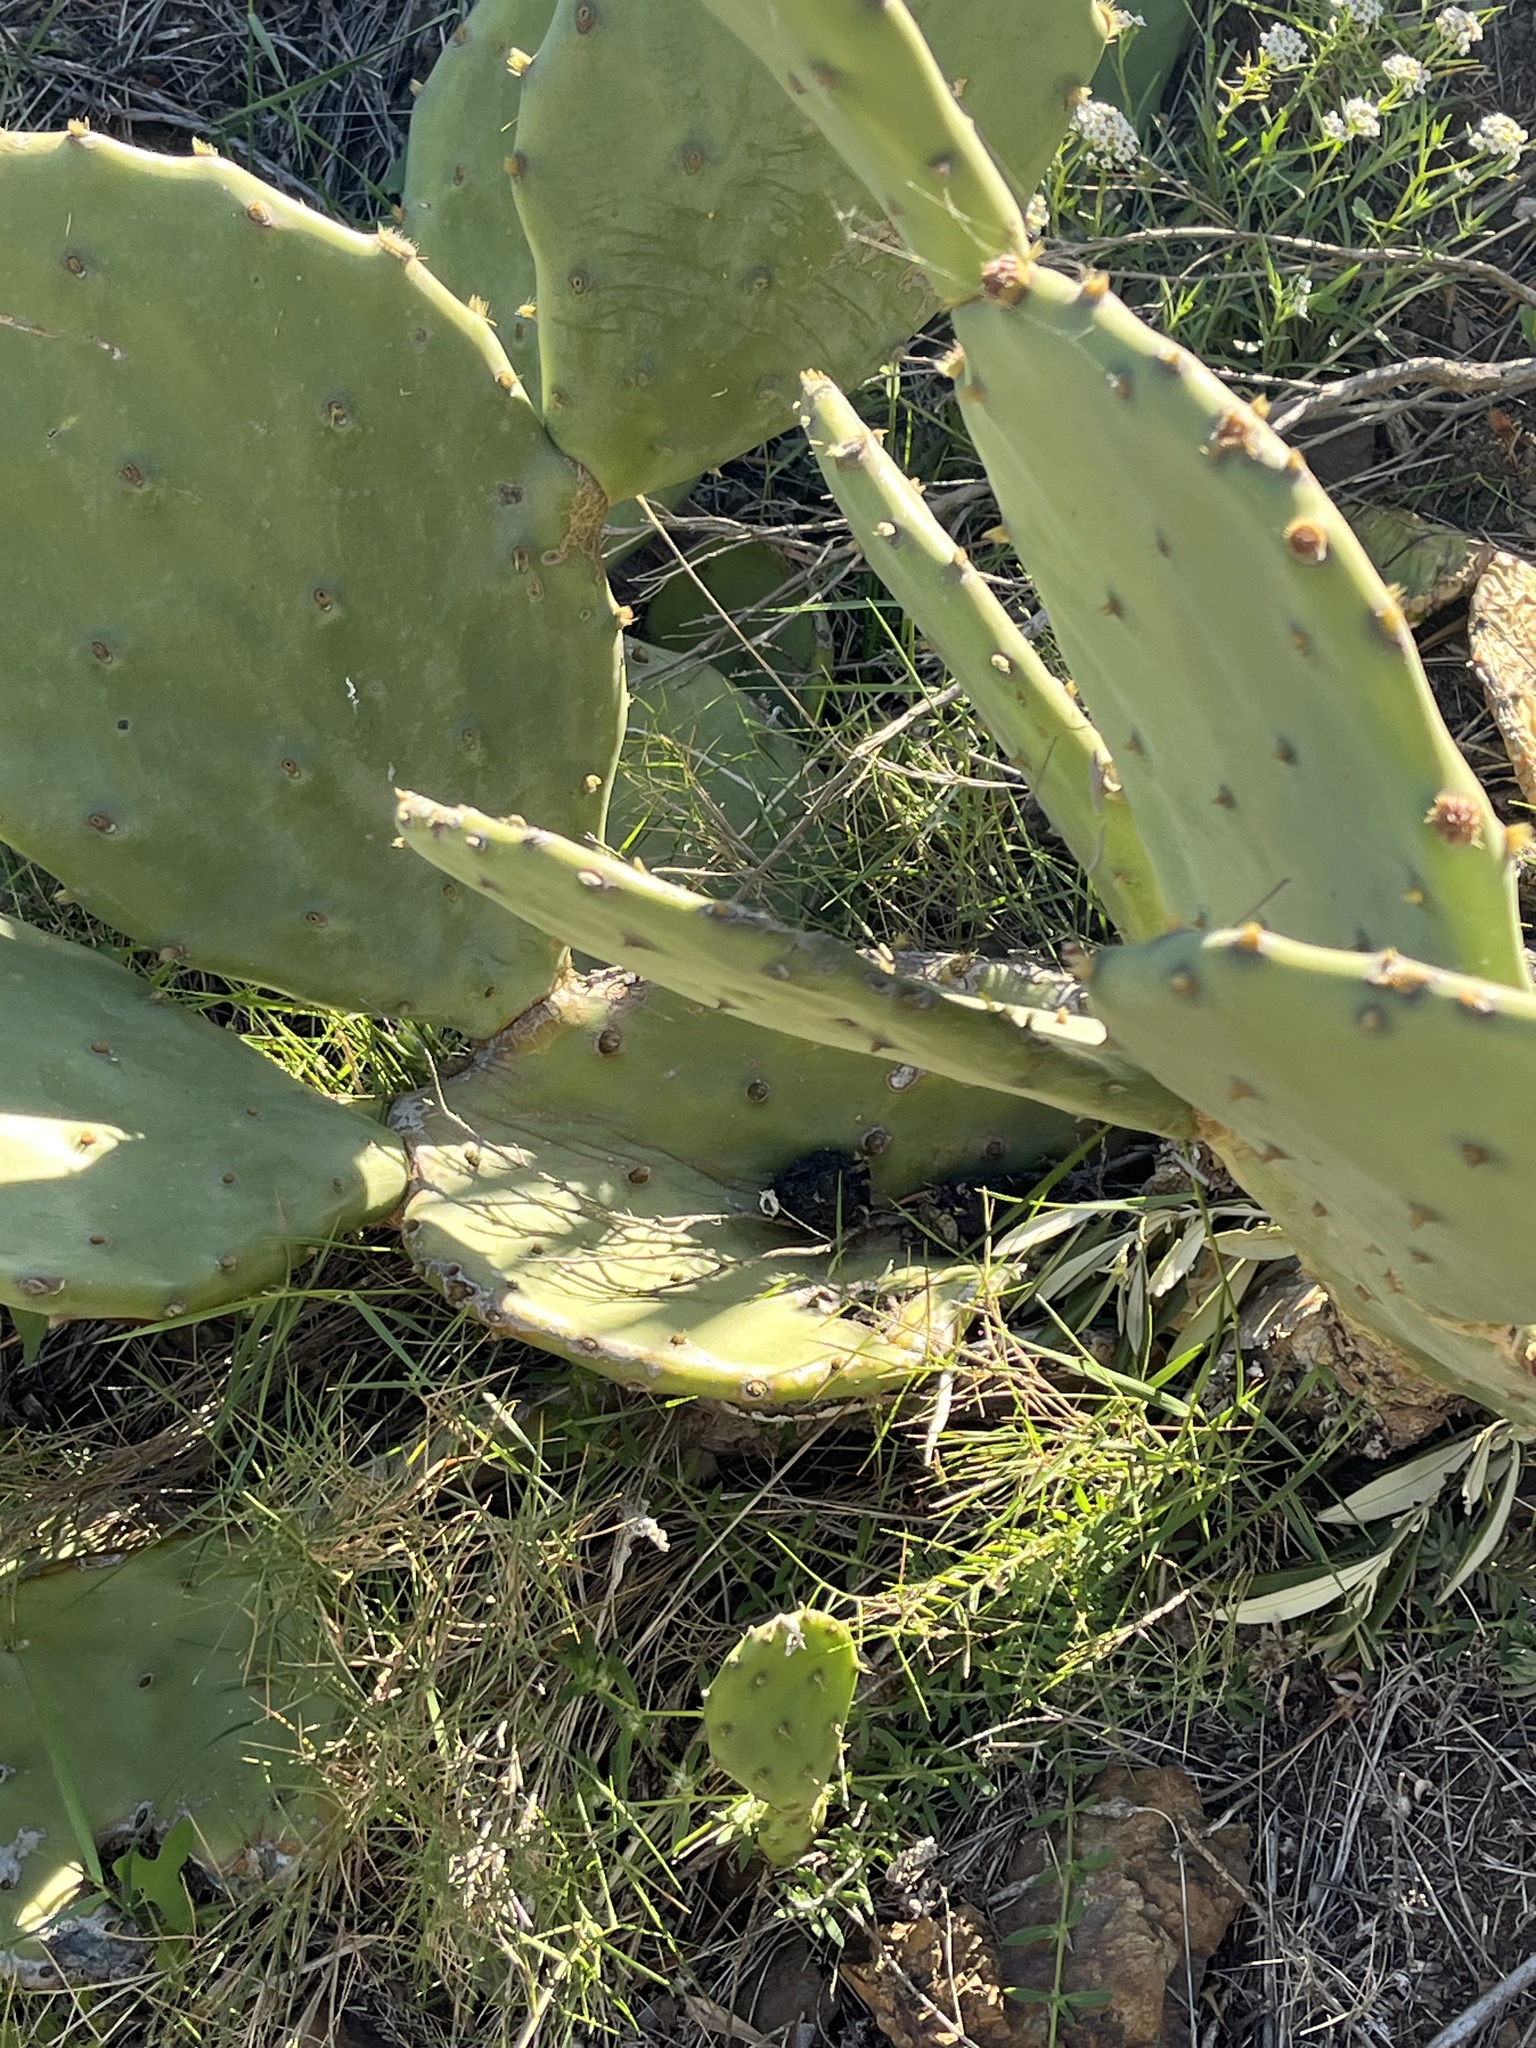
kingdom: Plantae
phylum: Tracheophyta
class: Magnoliopsida
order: Caryophyllales
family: Cactaceae
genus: Opuntia
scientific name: Opuntia anahuacensis
